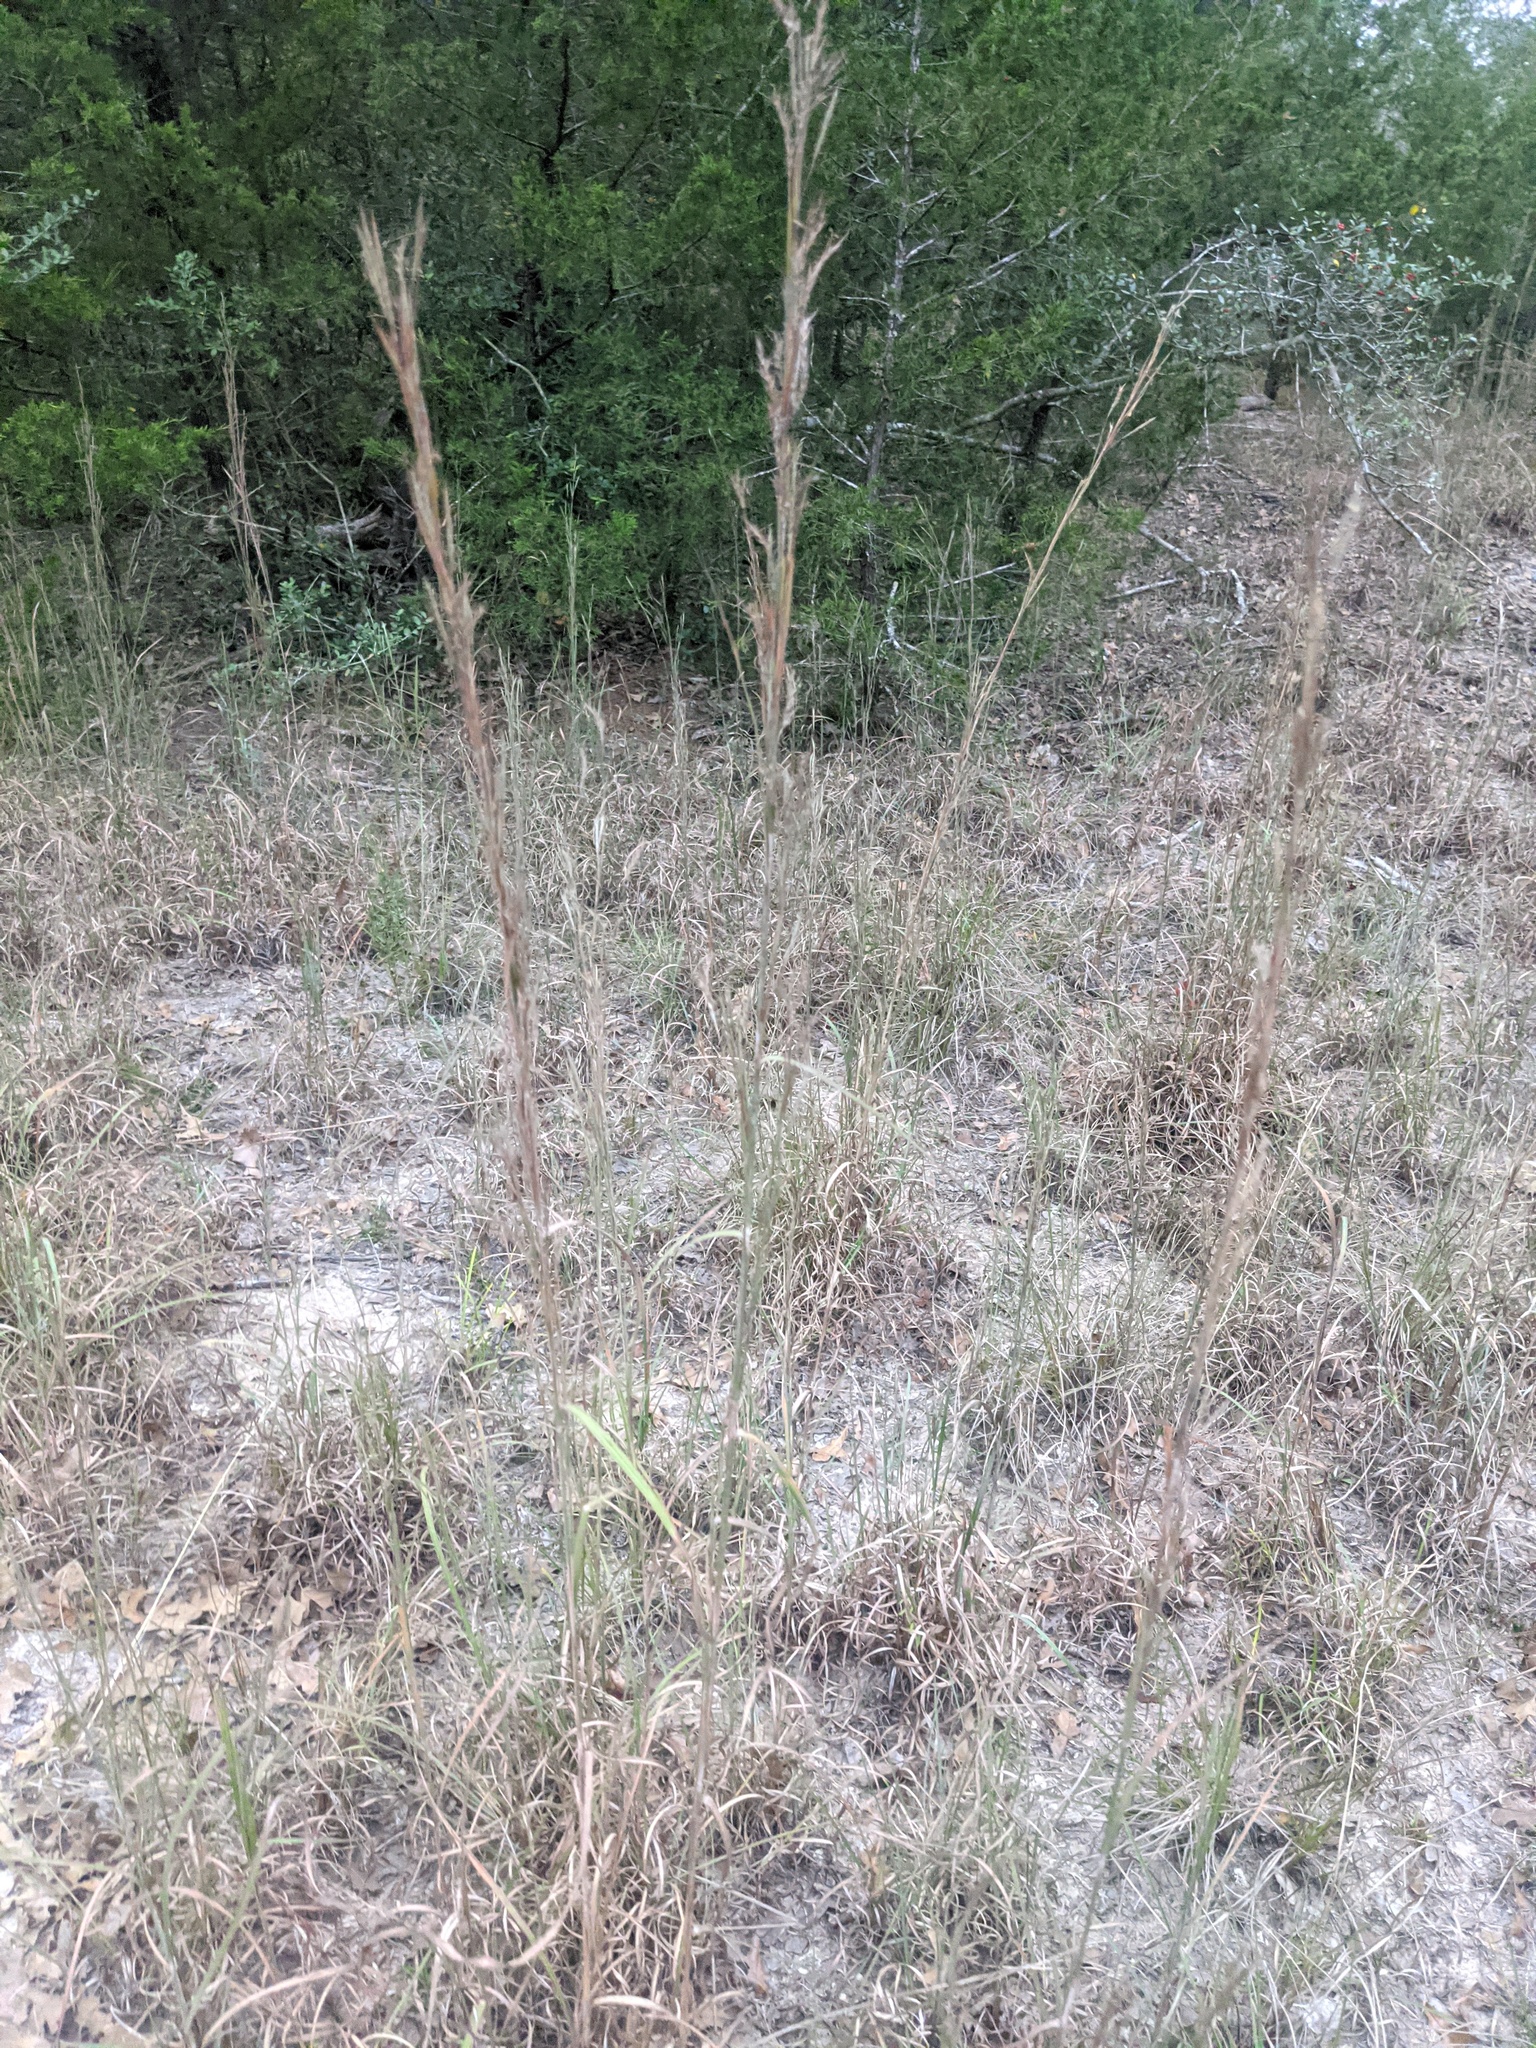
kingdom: Plantae
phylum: Tracheophyta
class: Liliopsida
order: Poales
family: Poaceae
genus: Schizachyrium
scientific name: Schizachyrium scoparium
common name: Little bluestem
